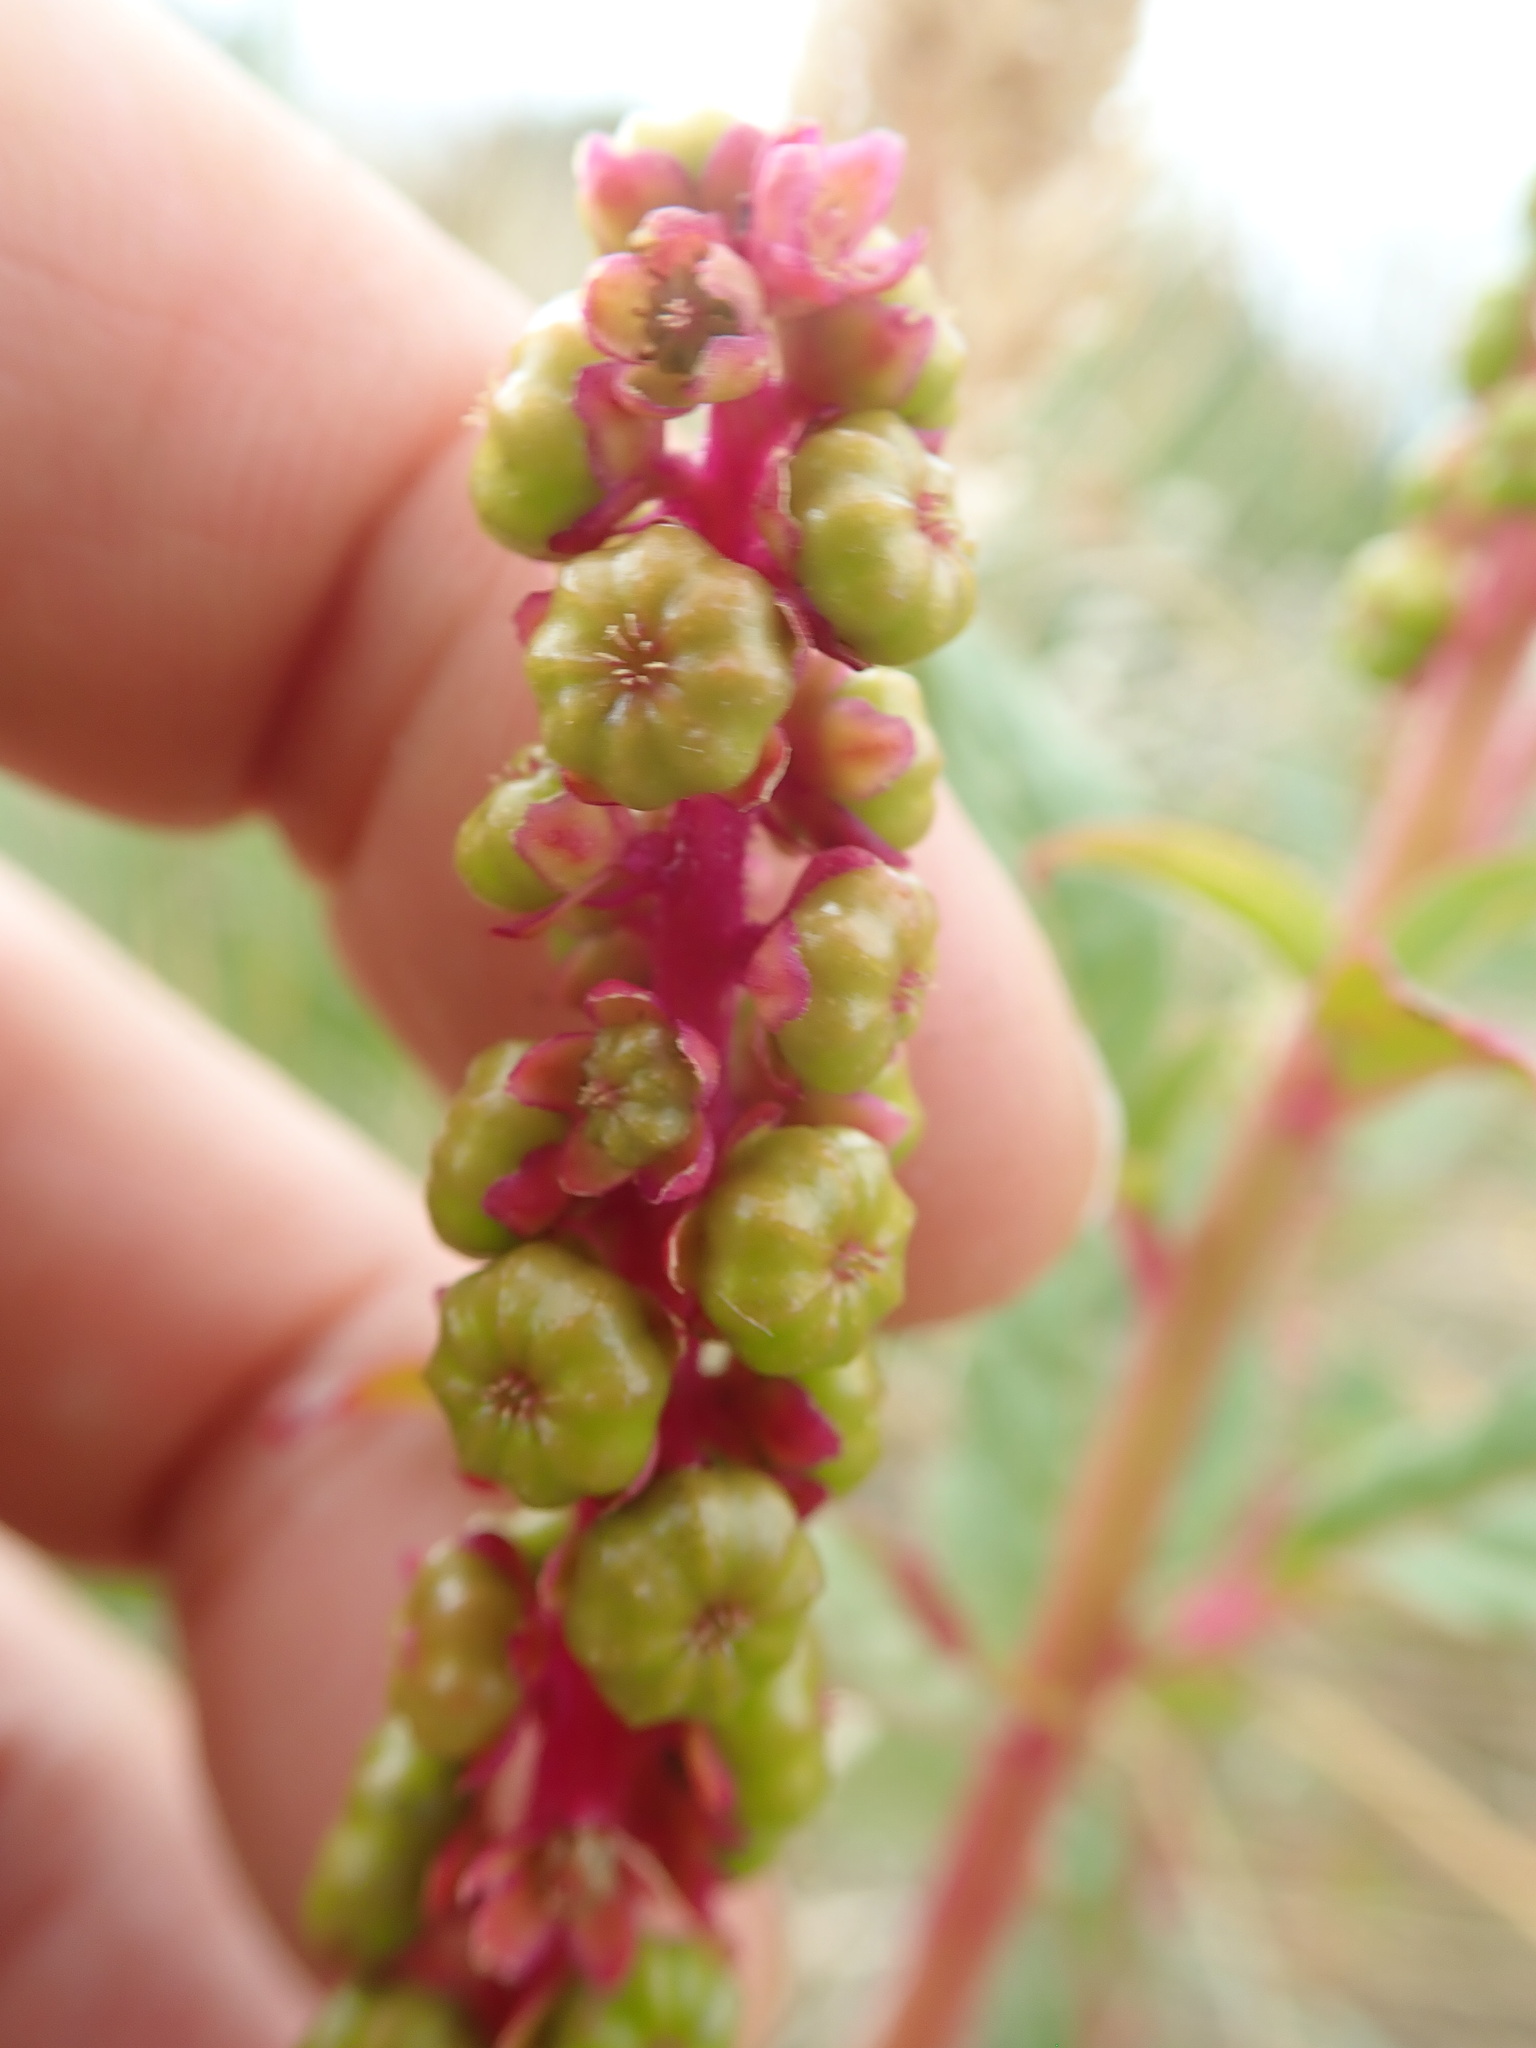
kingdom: Plantae
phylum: Tracheophyta
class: Magnoliopsida
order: Caryophyllales
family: Phytolaccaceae
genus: Phytolacca
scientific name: Phytolacca icosandra
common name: Button pokeweed
